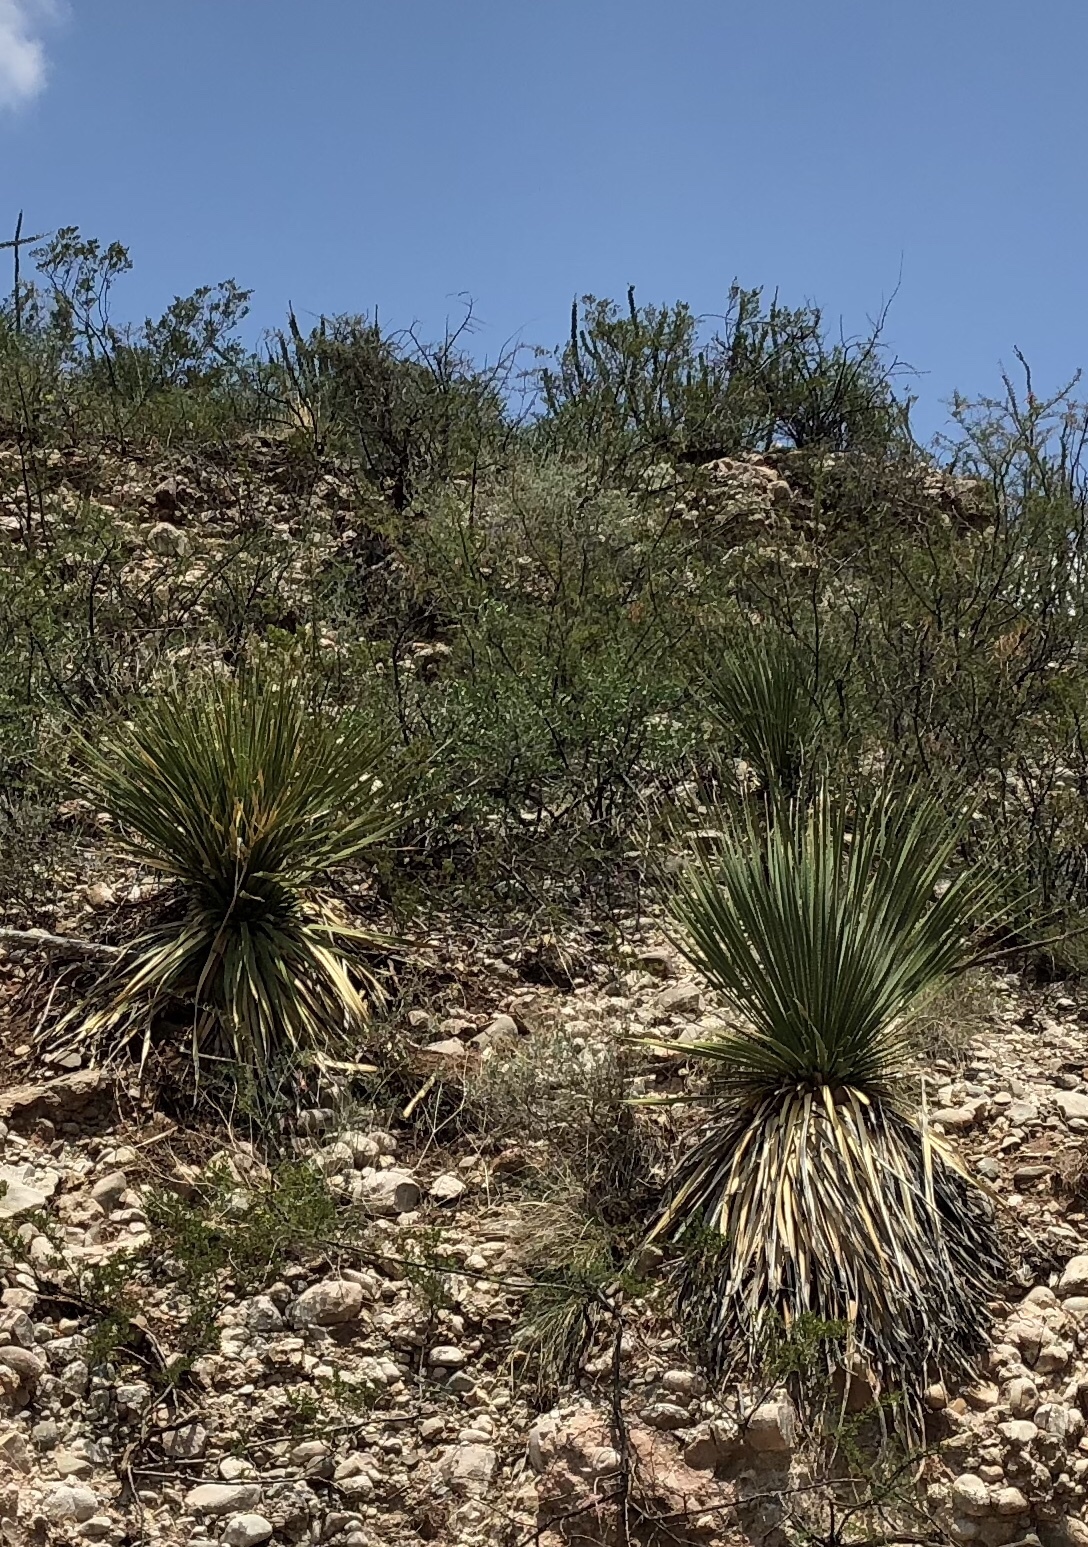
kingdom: Plantae
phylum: Tracheophyta
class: Liliopsida
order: Asparagales
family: Asparagaceae
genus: Dasylirion
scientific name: Dasylirion wheeleri
